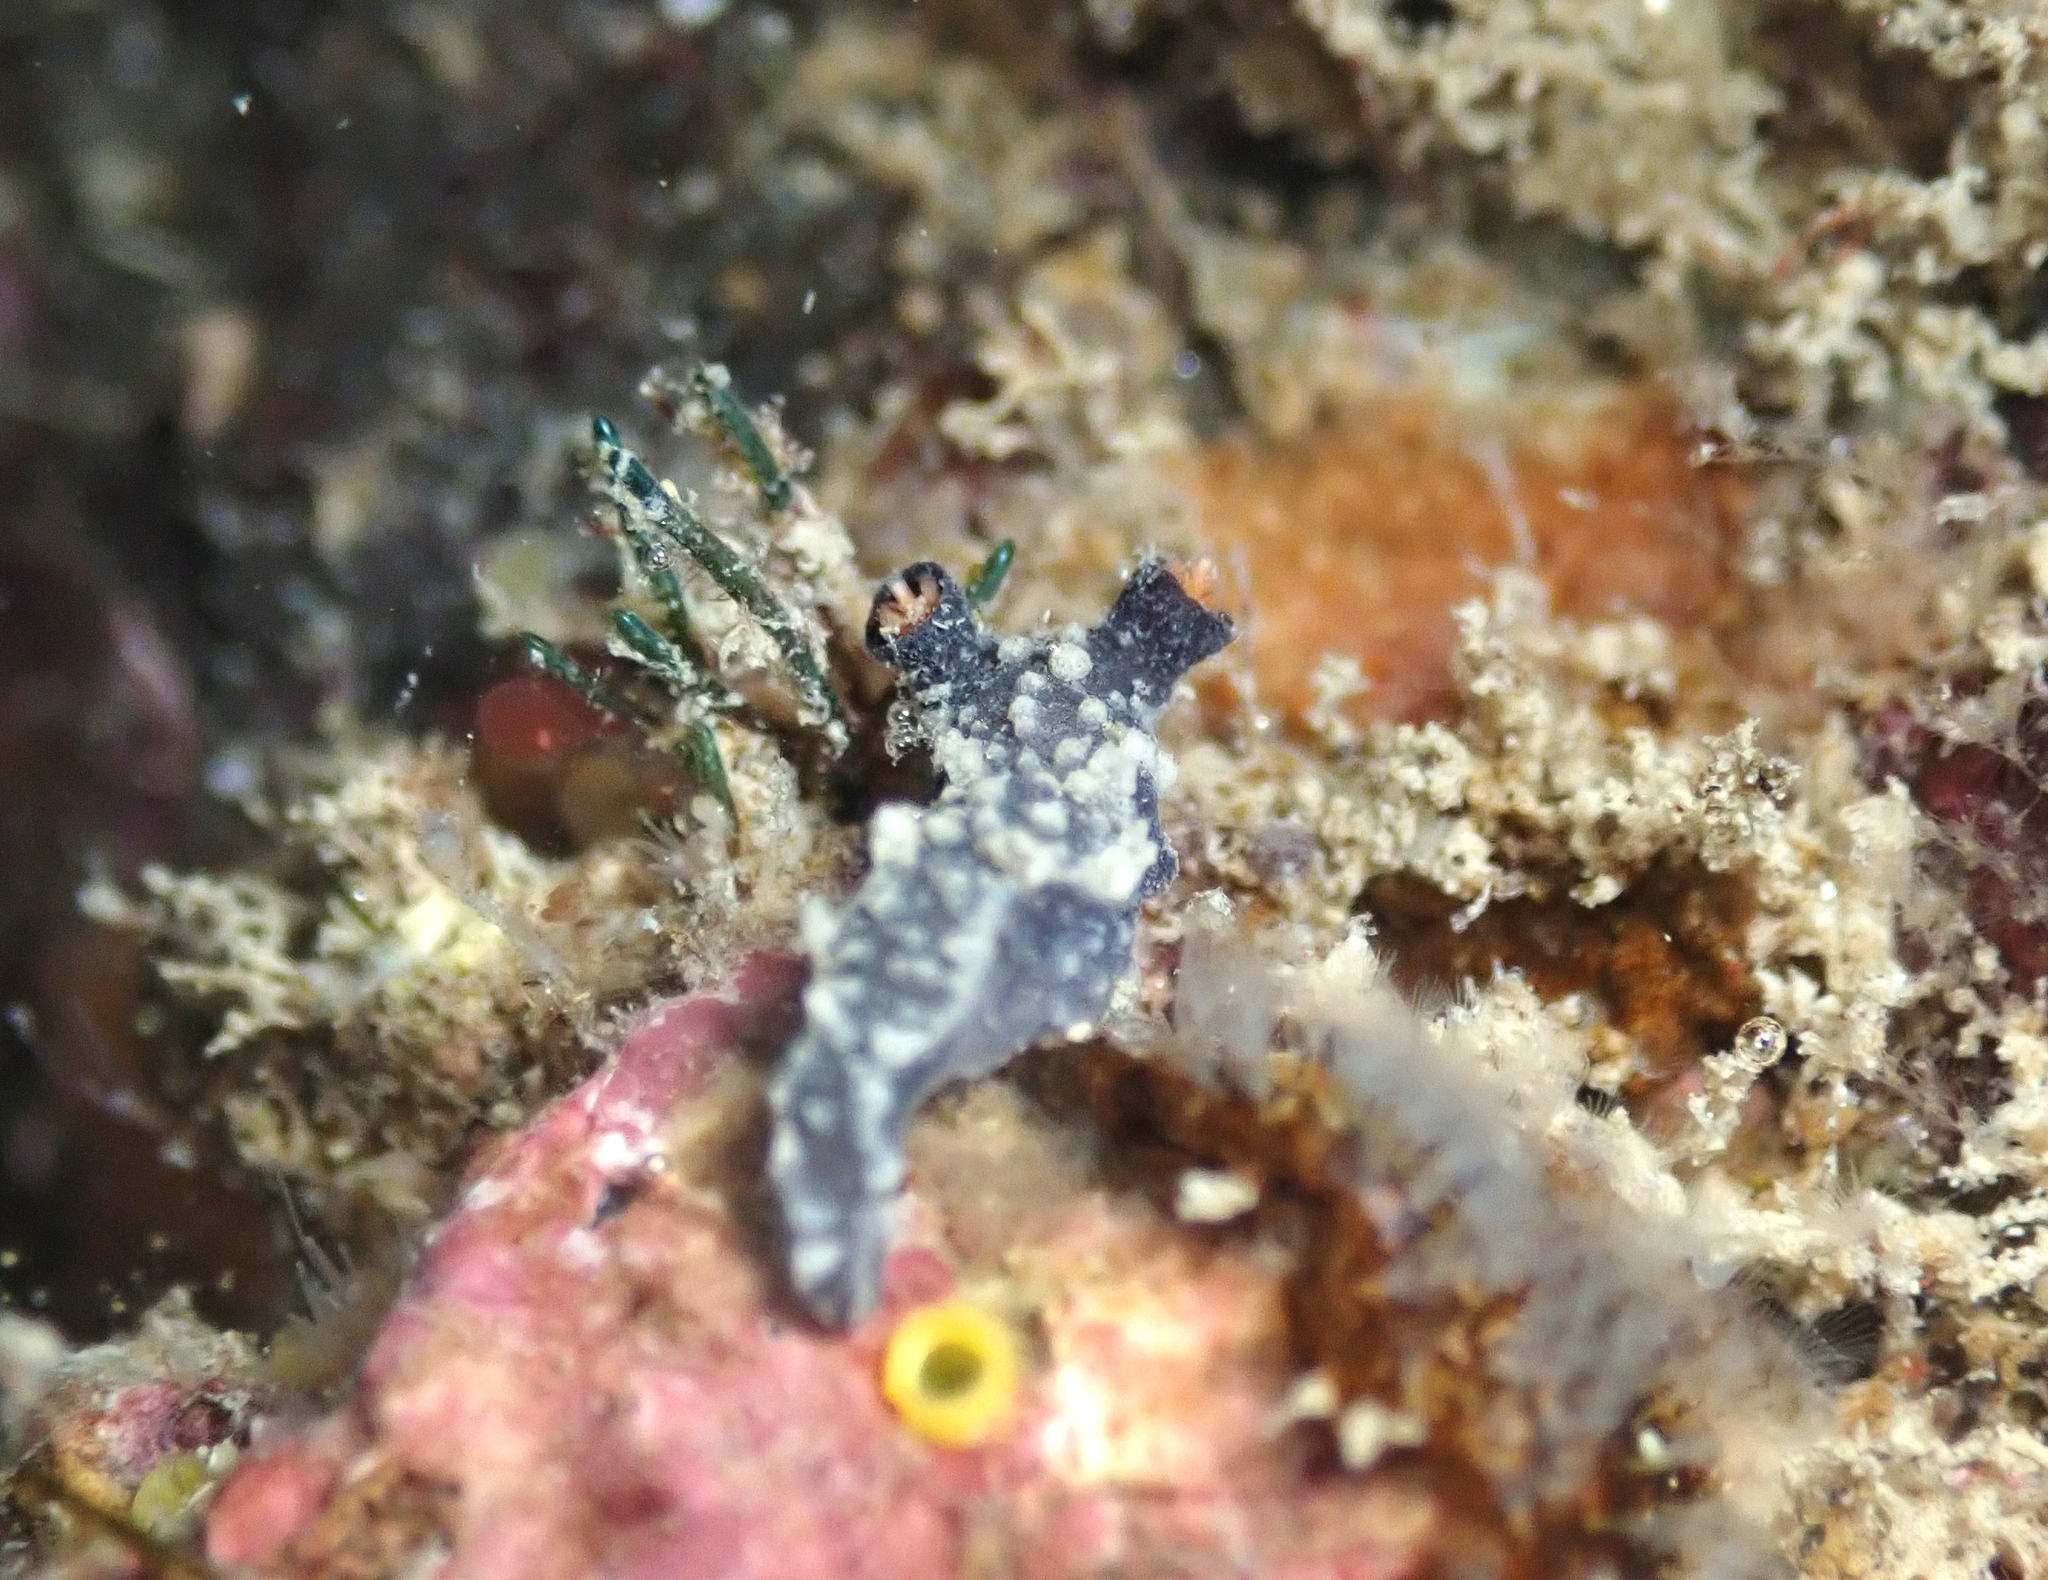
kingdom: Animalia
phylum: Mollusca
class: Gastropoda
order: Nudibranchia
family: Tritoniidae
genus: Tritonia
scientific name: Tritonia flemingi
